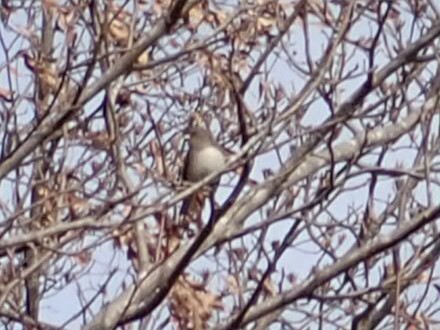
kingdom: Animalia
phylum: Chordata
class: Aves
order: Passeriformes
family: Paridae
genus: Baeolophus
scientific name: Baeolophus bicolor
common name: Tufted titmouse
